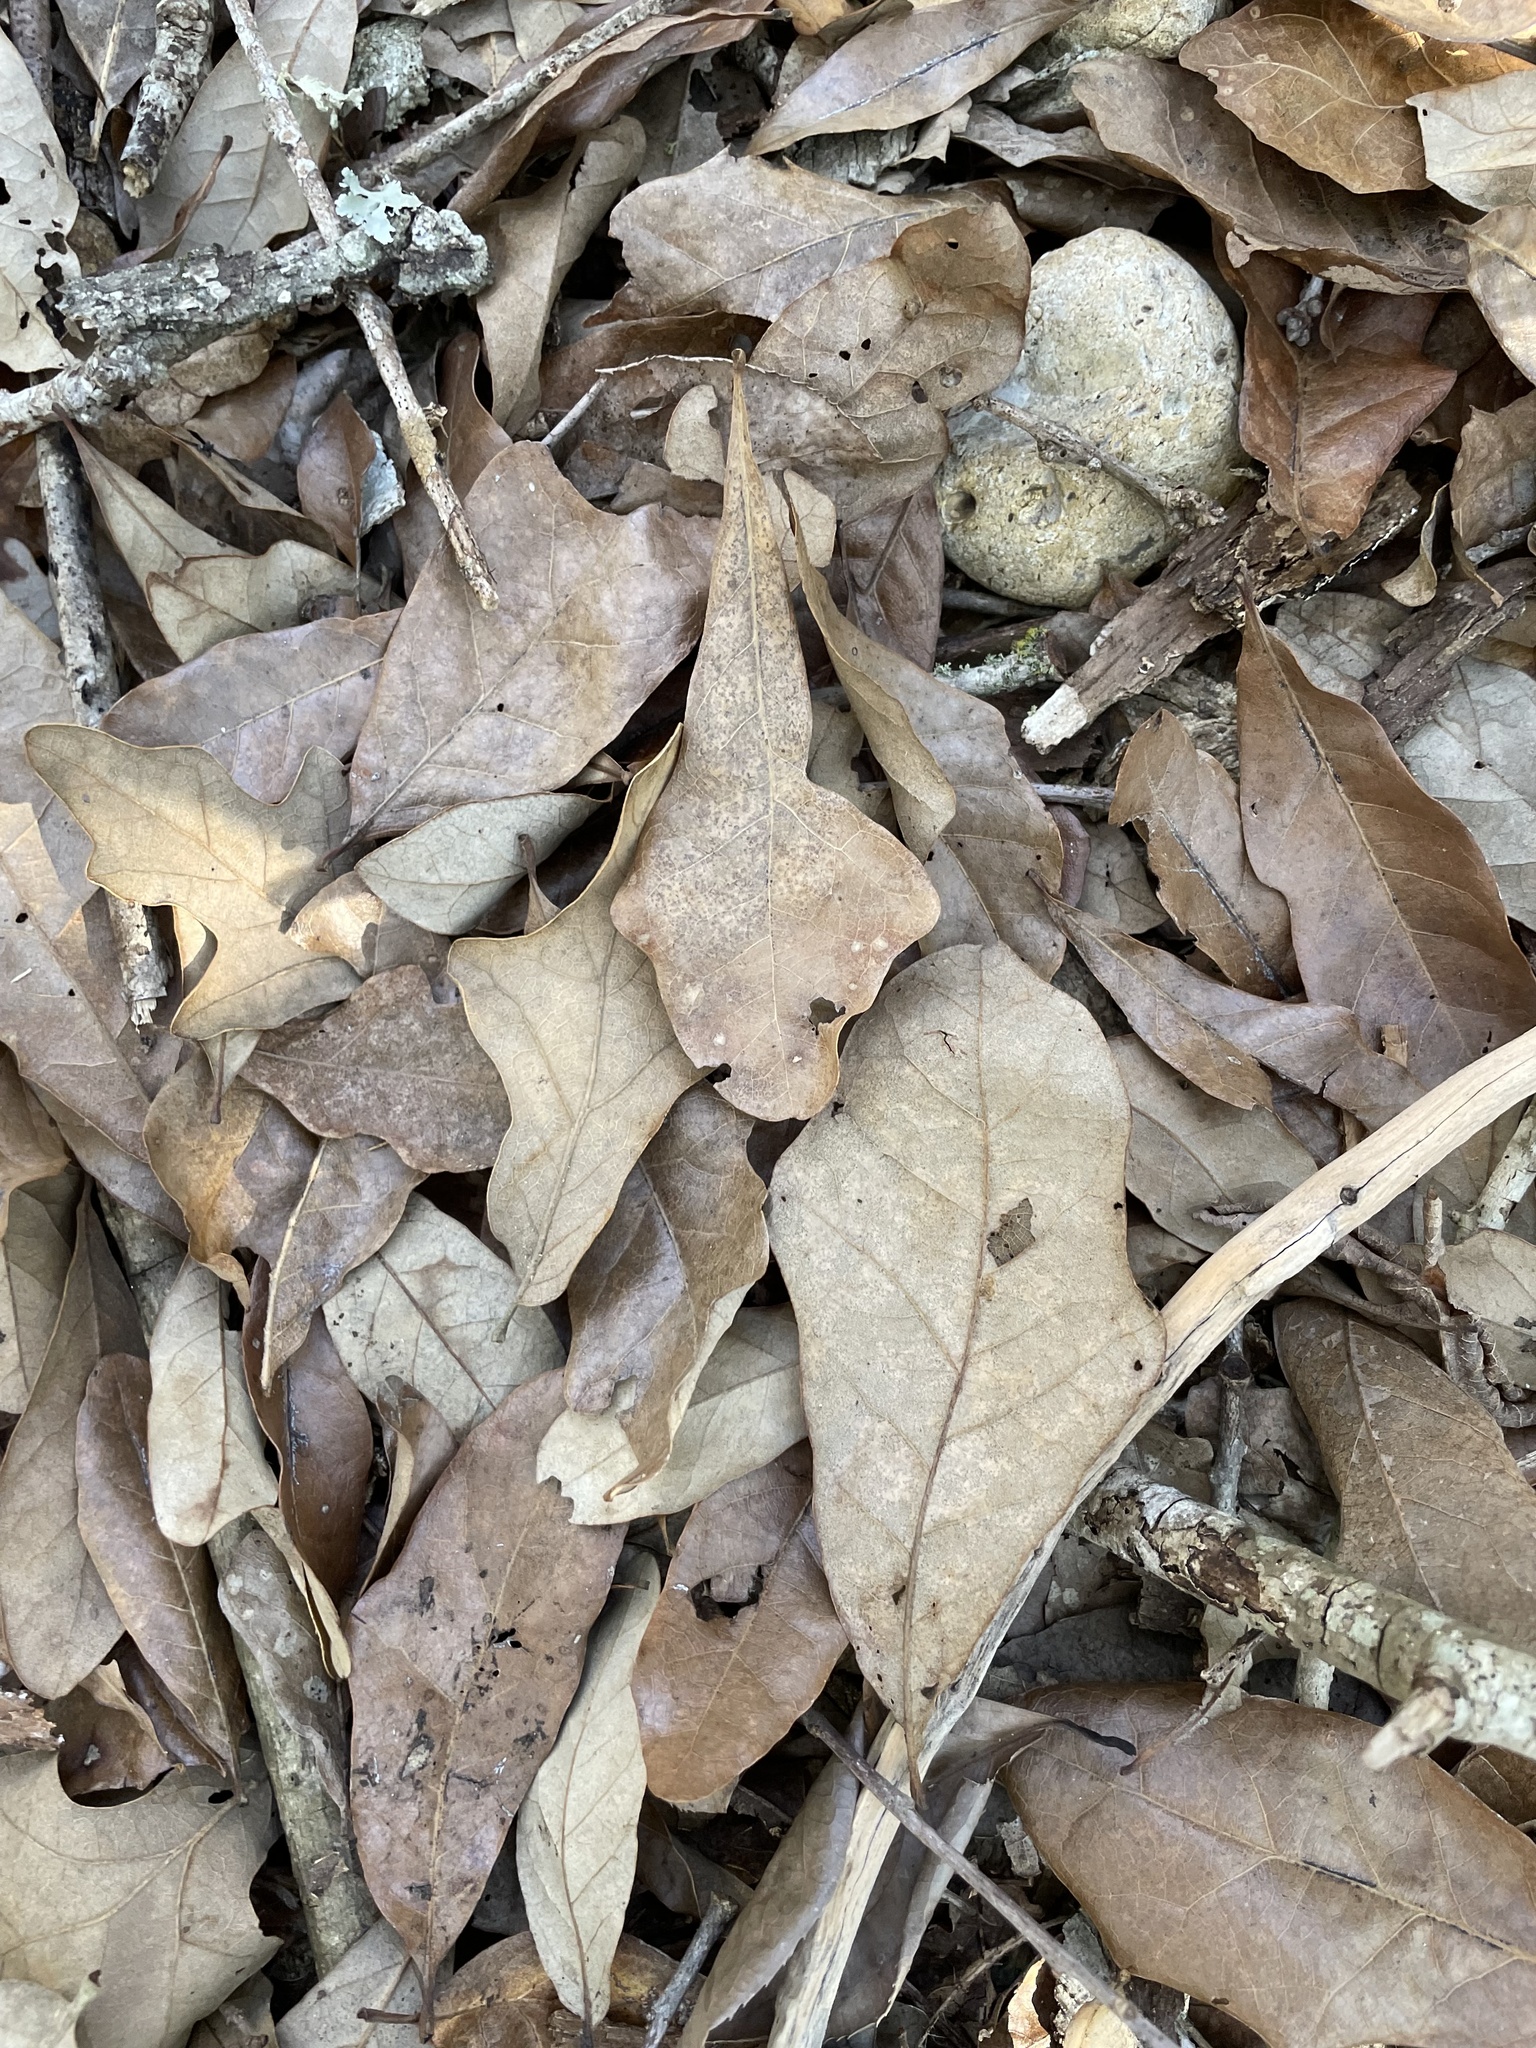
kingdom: Plantae
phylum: Tracheophyta
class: Magnoliopsida
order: Fagales
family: Fagaceae
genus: Quercus
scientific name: Quercus sinuata
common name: Durand oak
